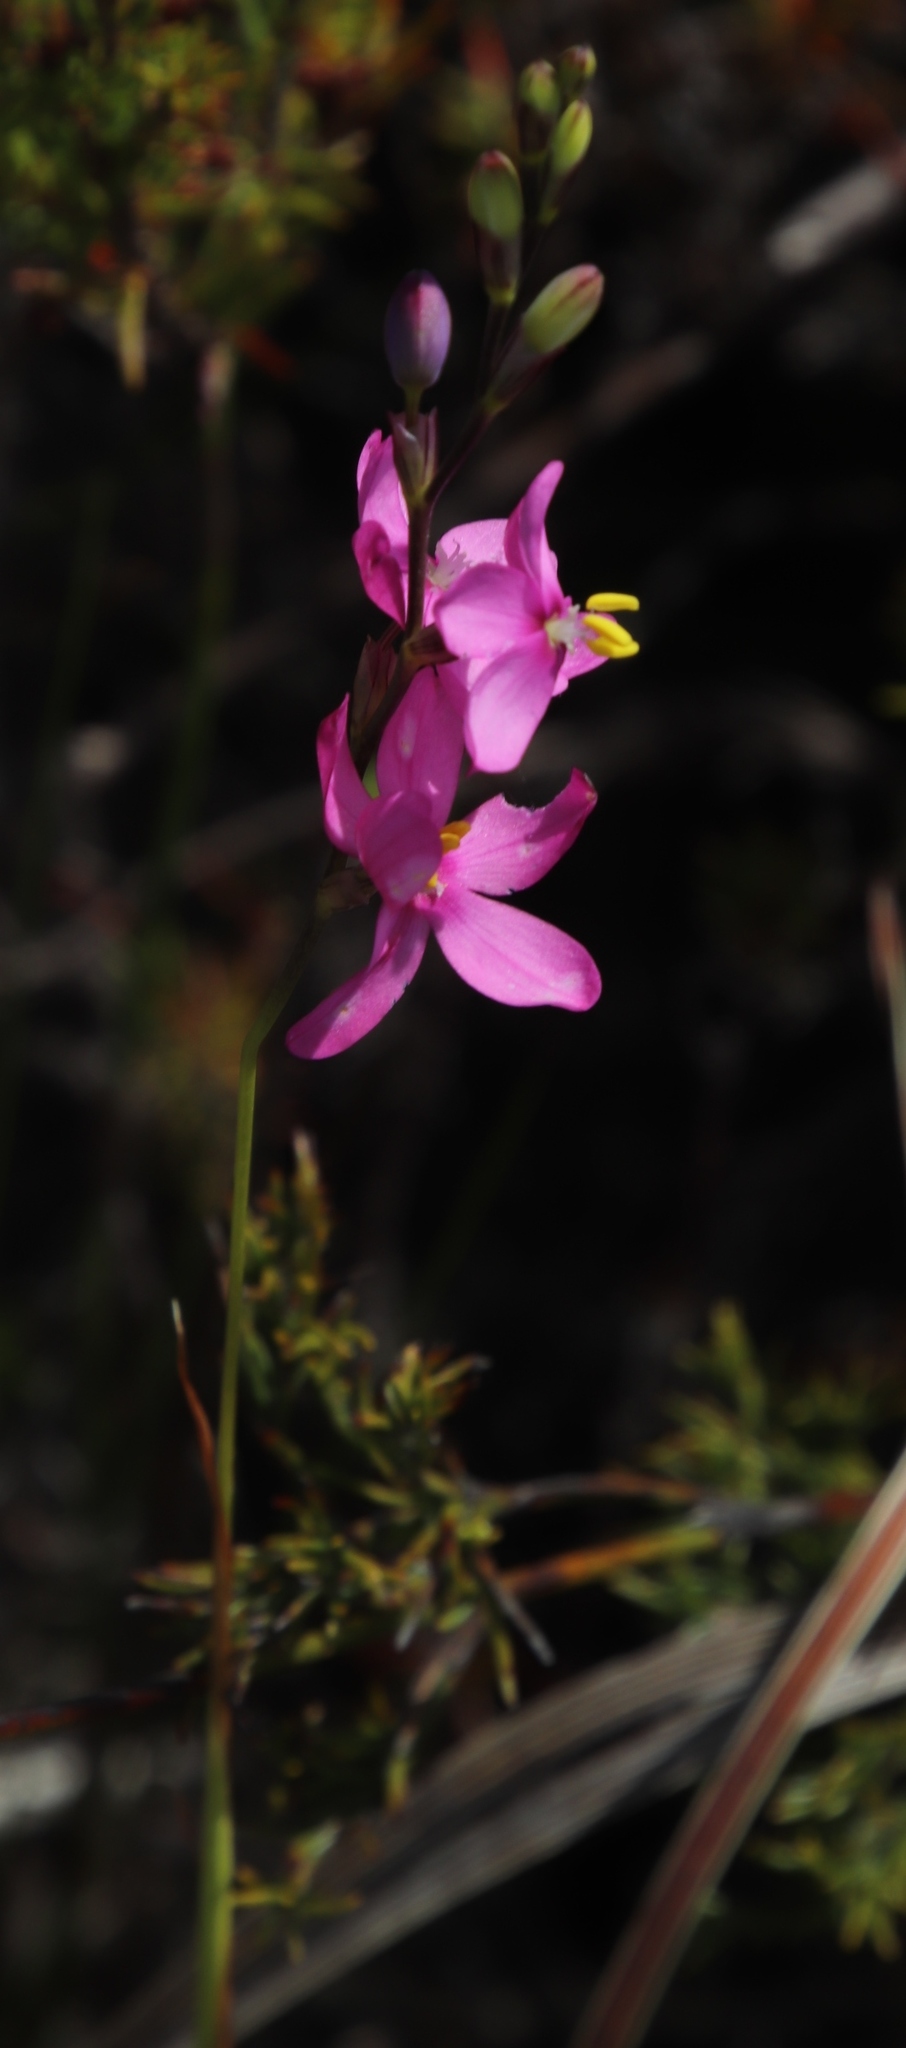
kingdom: Plantae
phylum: Tracheophyta
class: Liliopsida
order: Asparagales
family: Iridaceae
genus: Ixia
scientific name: Ixia stricta
